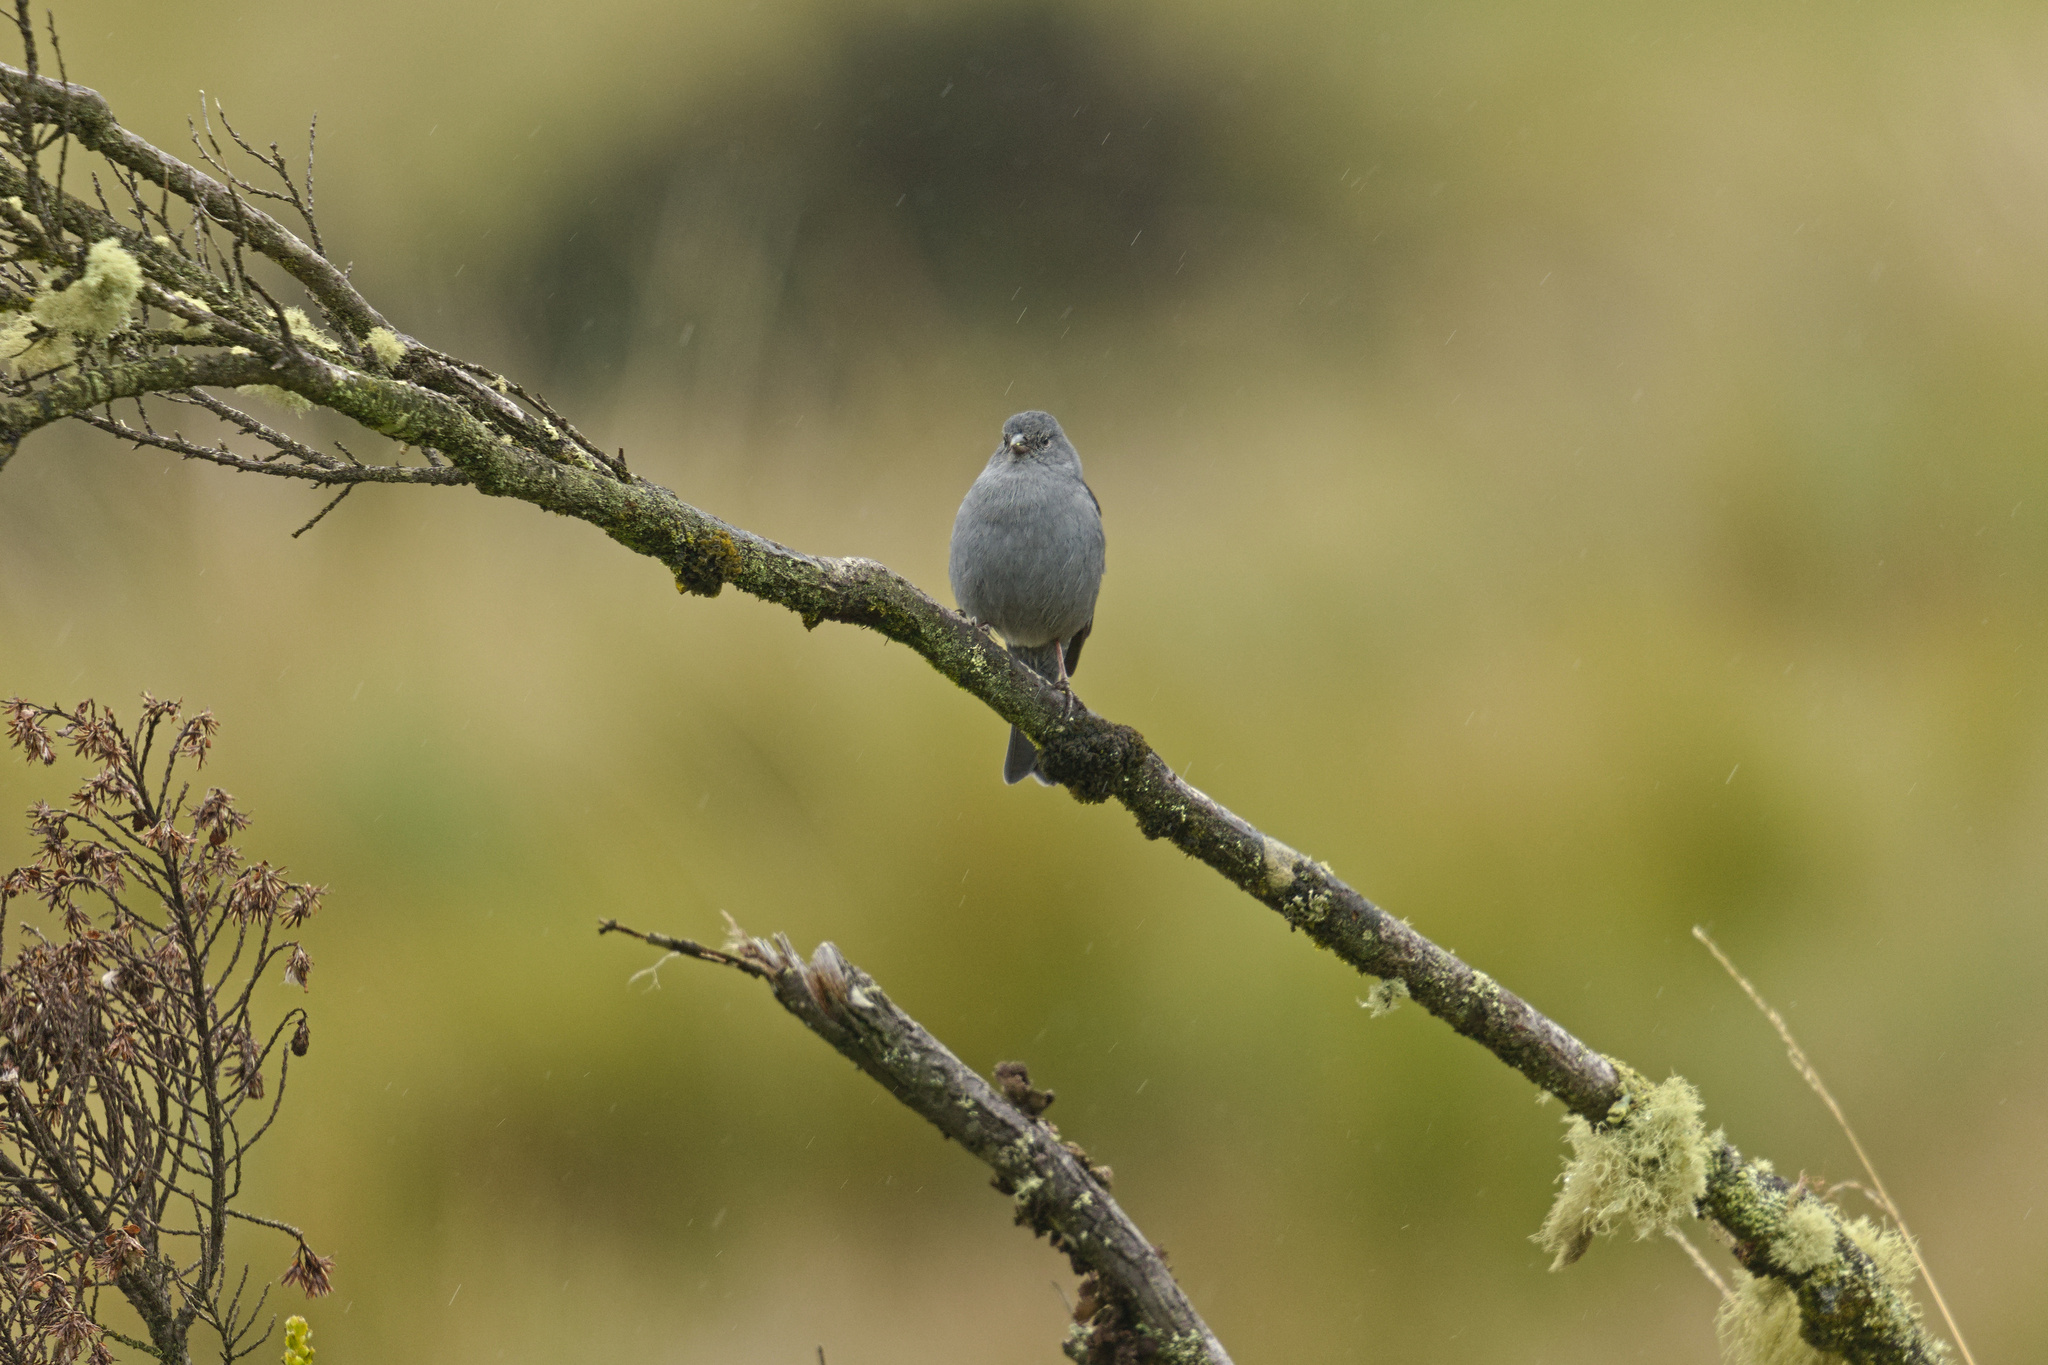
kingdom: Animalia
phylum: Chordata
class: Aves
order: Passeriformes
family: Thraupidae
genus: Geospizopsis
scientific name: Geospizopsis unicolor
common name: Plumbeous sierra-finch
